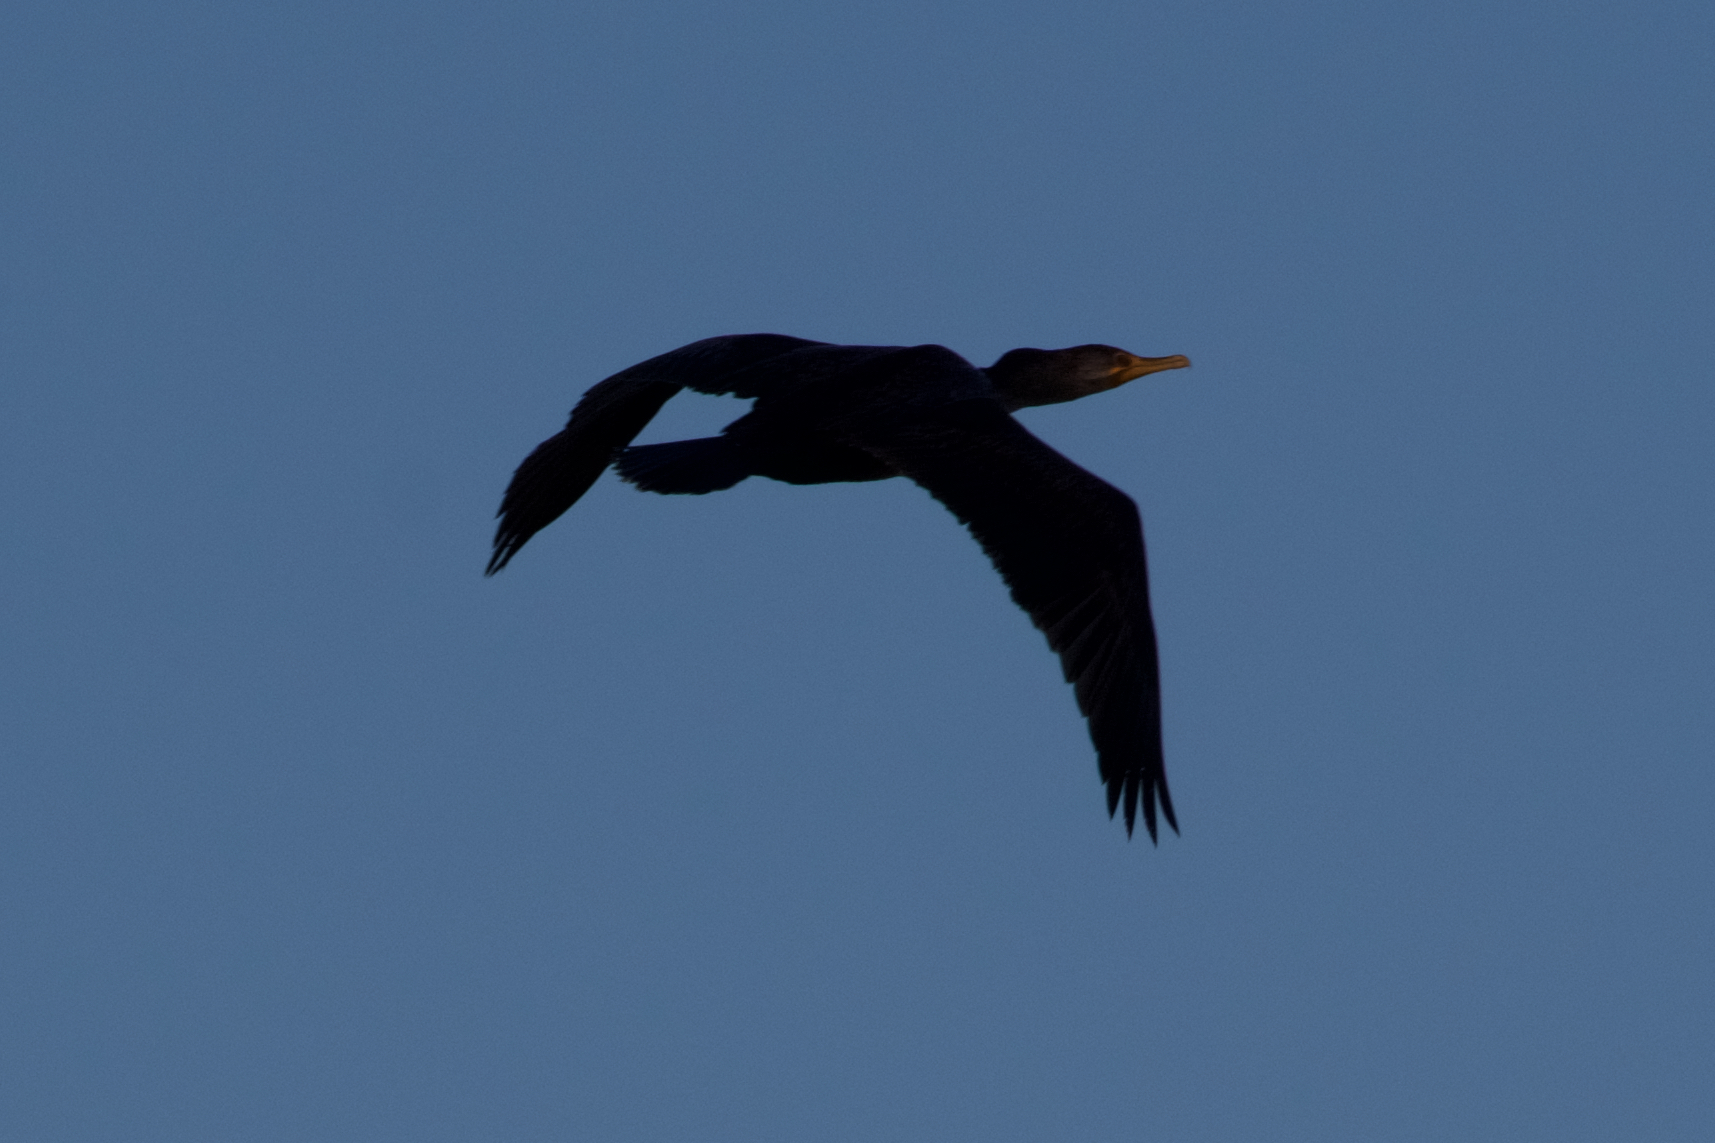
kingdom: Animalia
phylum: Chordata
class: Aves
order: Suliformes
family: Phalacrocoracidae
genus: Phalacrocorax
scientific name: Phalacrocorax auritus
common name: Double-crested cormorant
